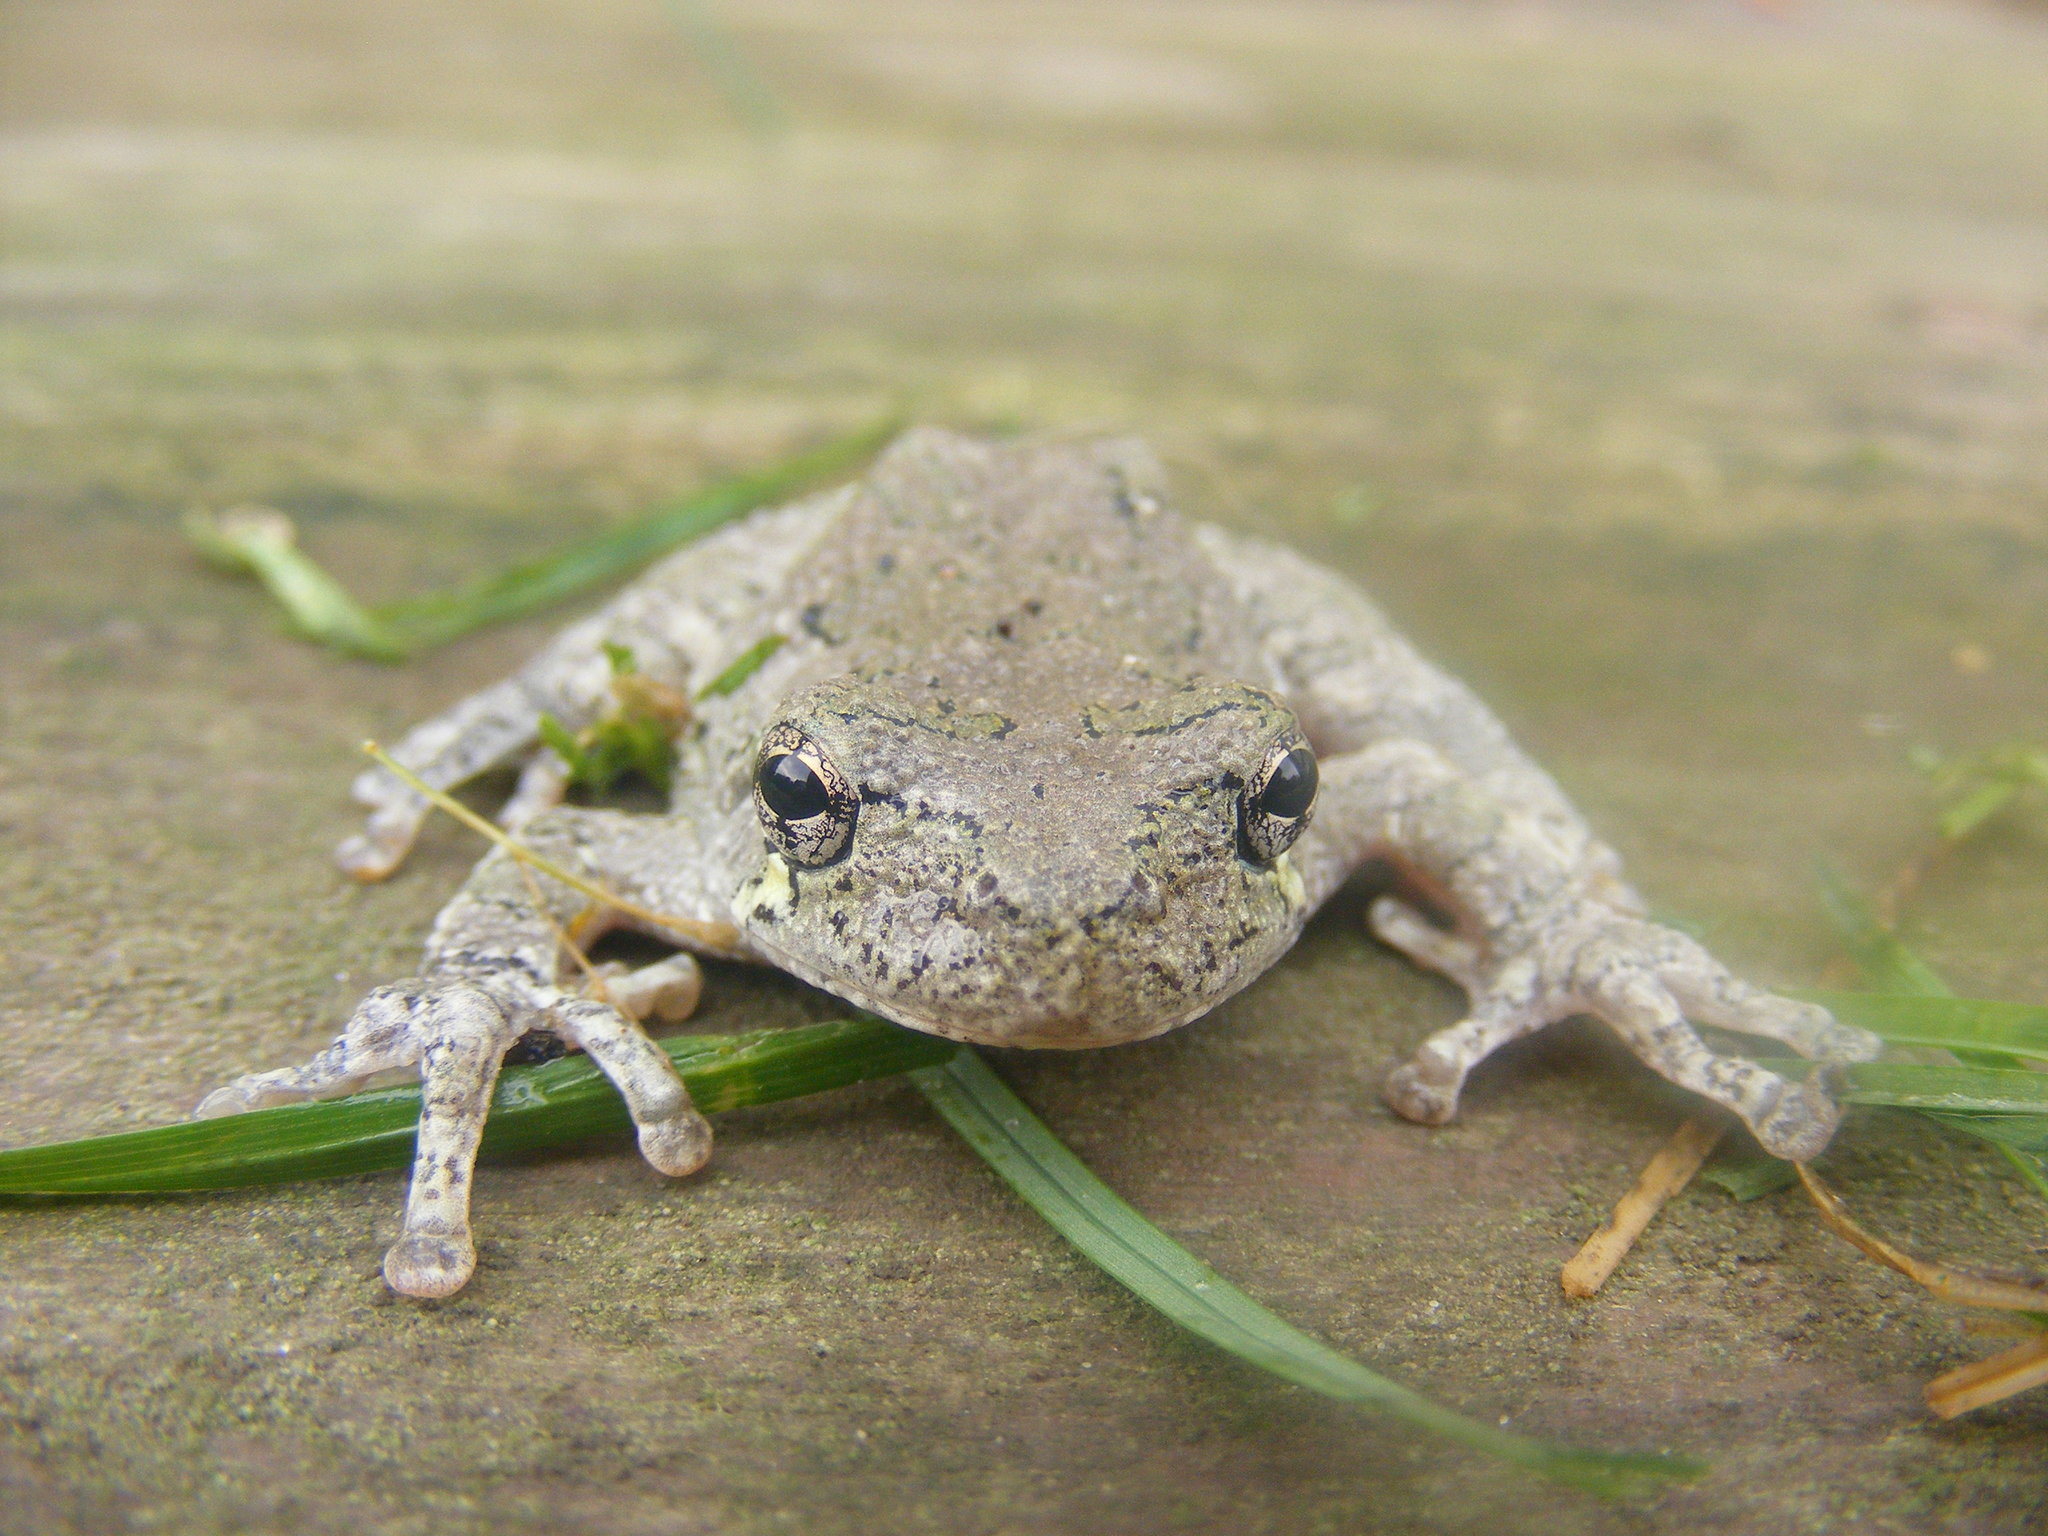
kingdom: Animalia
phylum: Chordata
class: Amphibia
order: Anura
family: Hylidae
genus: Dryophytes
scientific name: Dryophytes versicolor
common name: Gray treefrog
